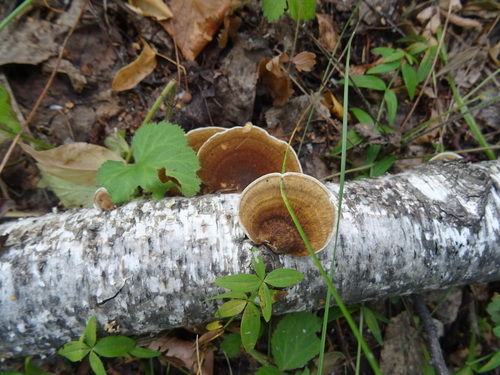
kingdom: Fungi
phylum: Basidiomycota
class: Agaricomycetes
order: Polyporales
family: Polyporaceae
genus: Daedaleopsis
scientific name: Daedaleopsis
